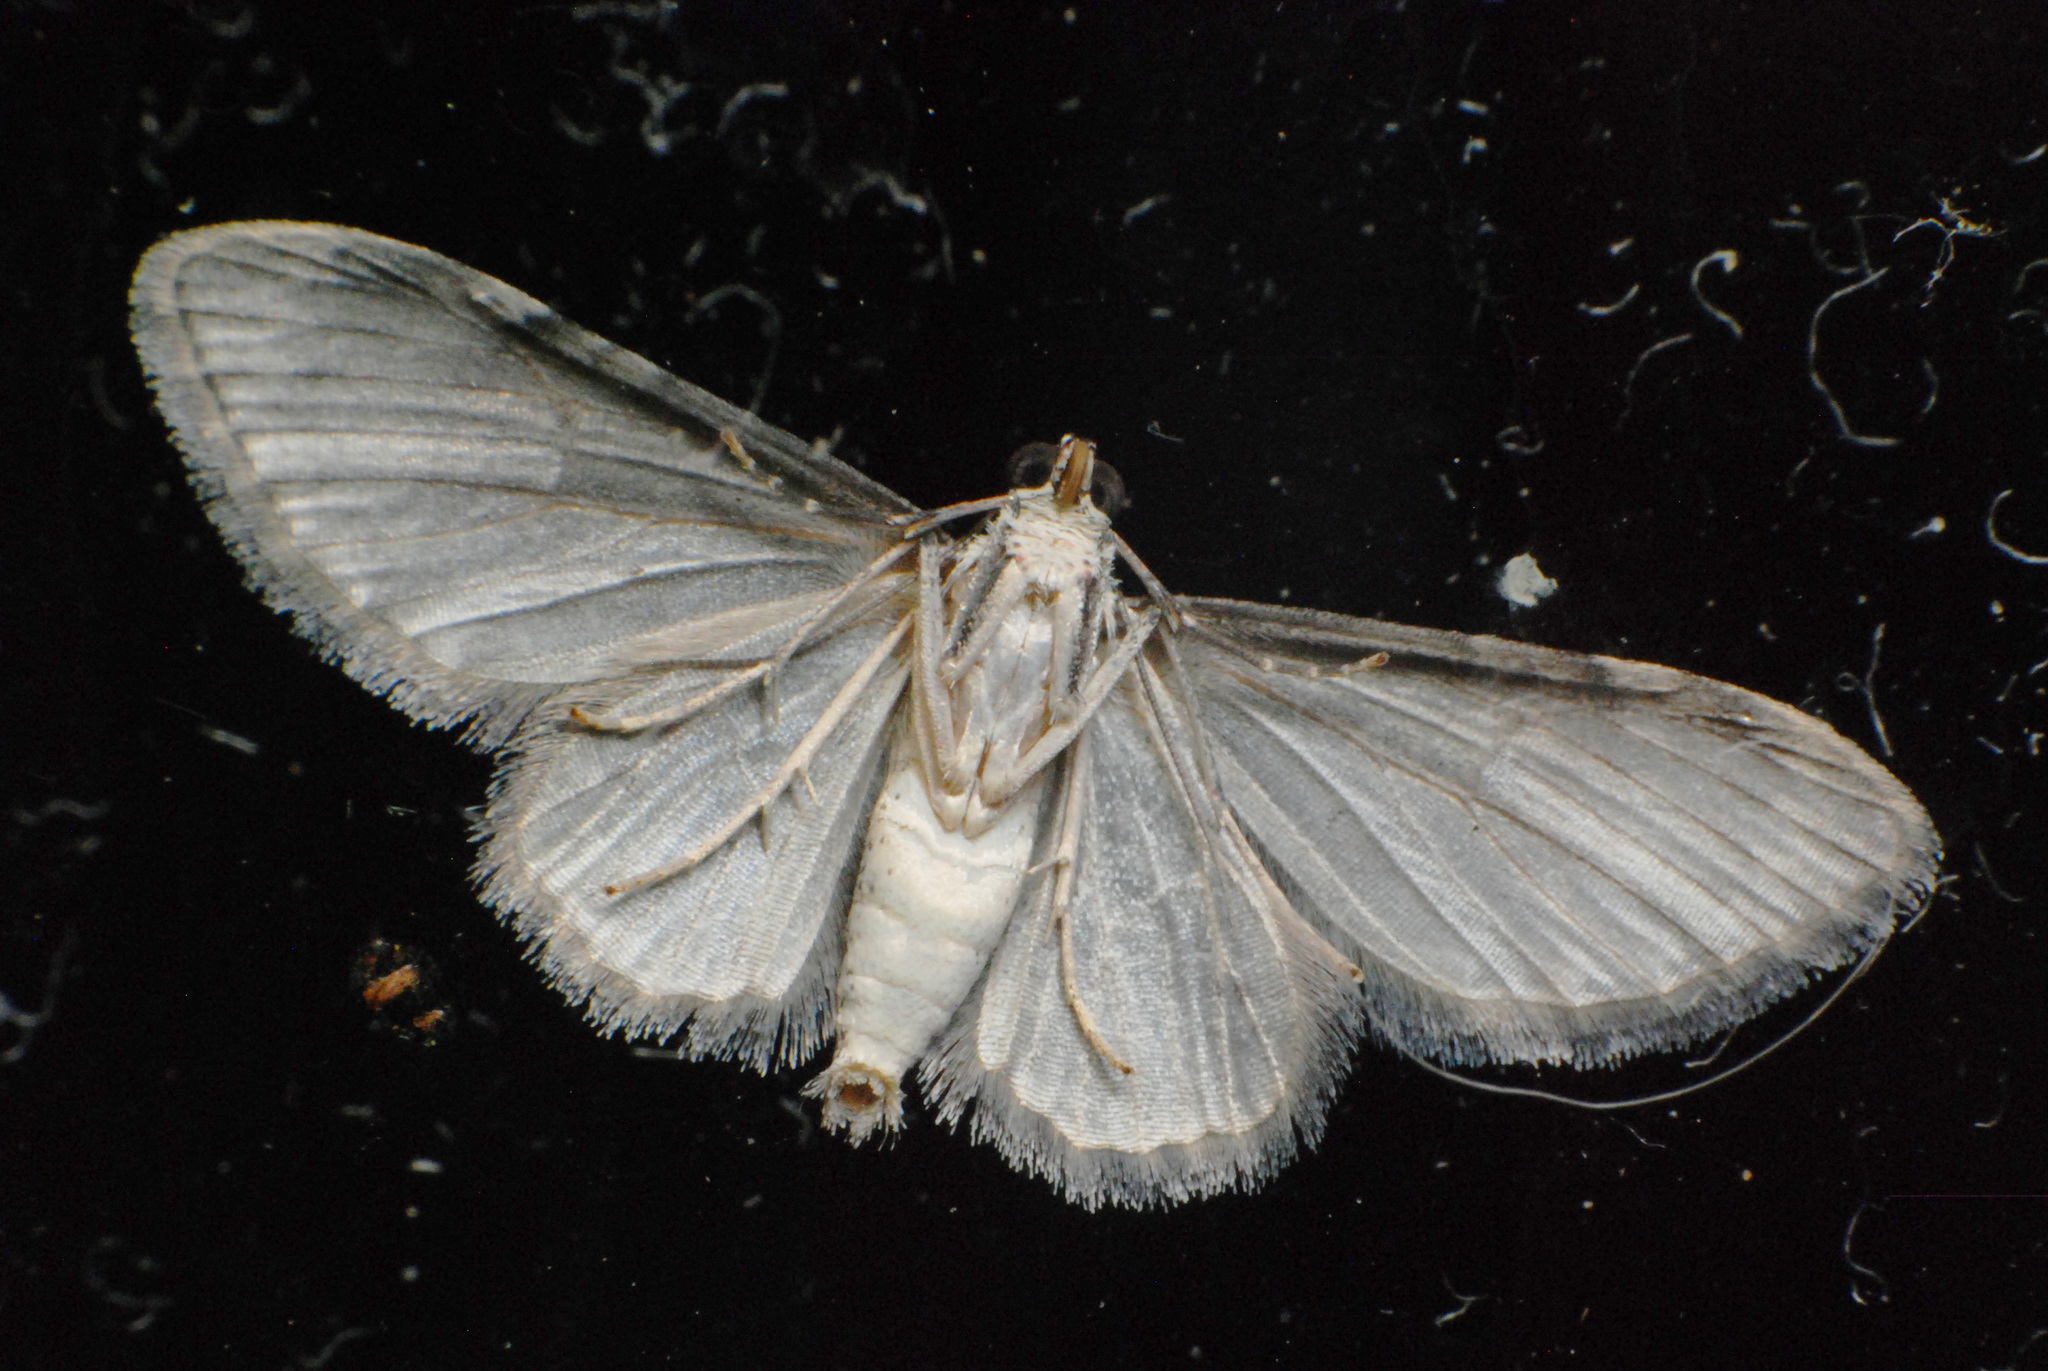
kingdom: Animalia
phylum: Arthropoda
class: Insecta
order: Lepidoptera
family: Geometridae
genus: Chloroclystis
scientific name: Chloroclystis insigillata
